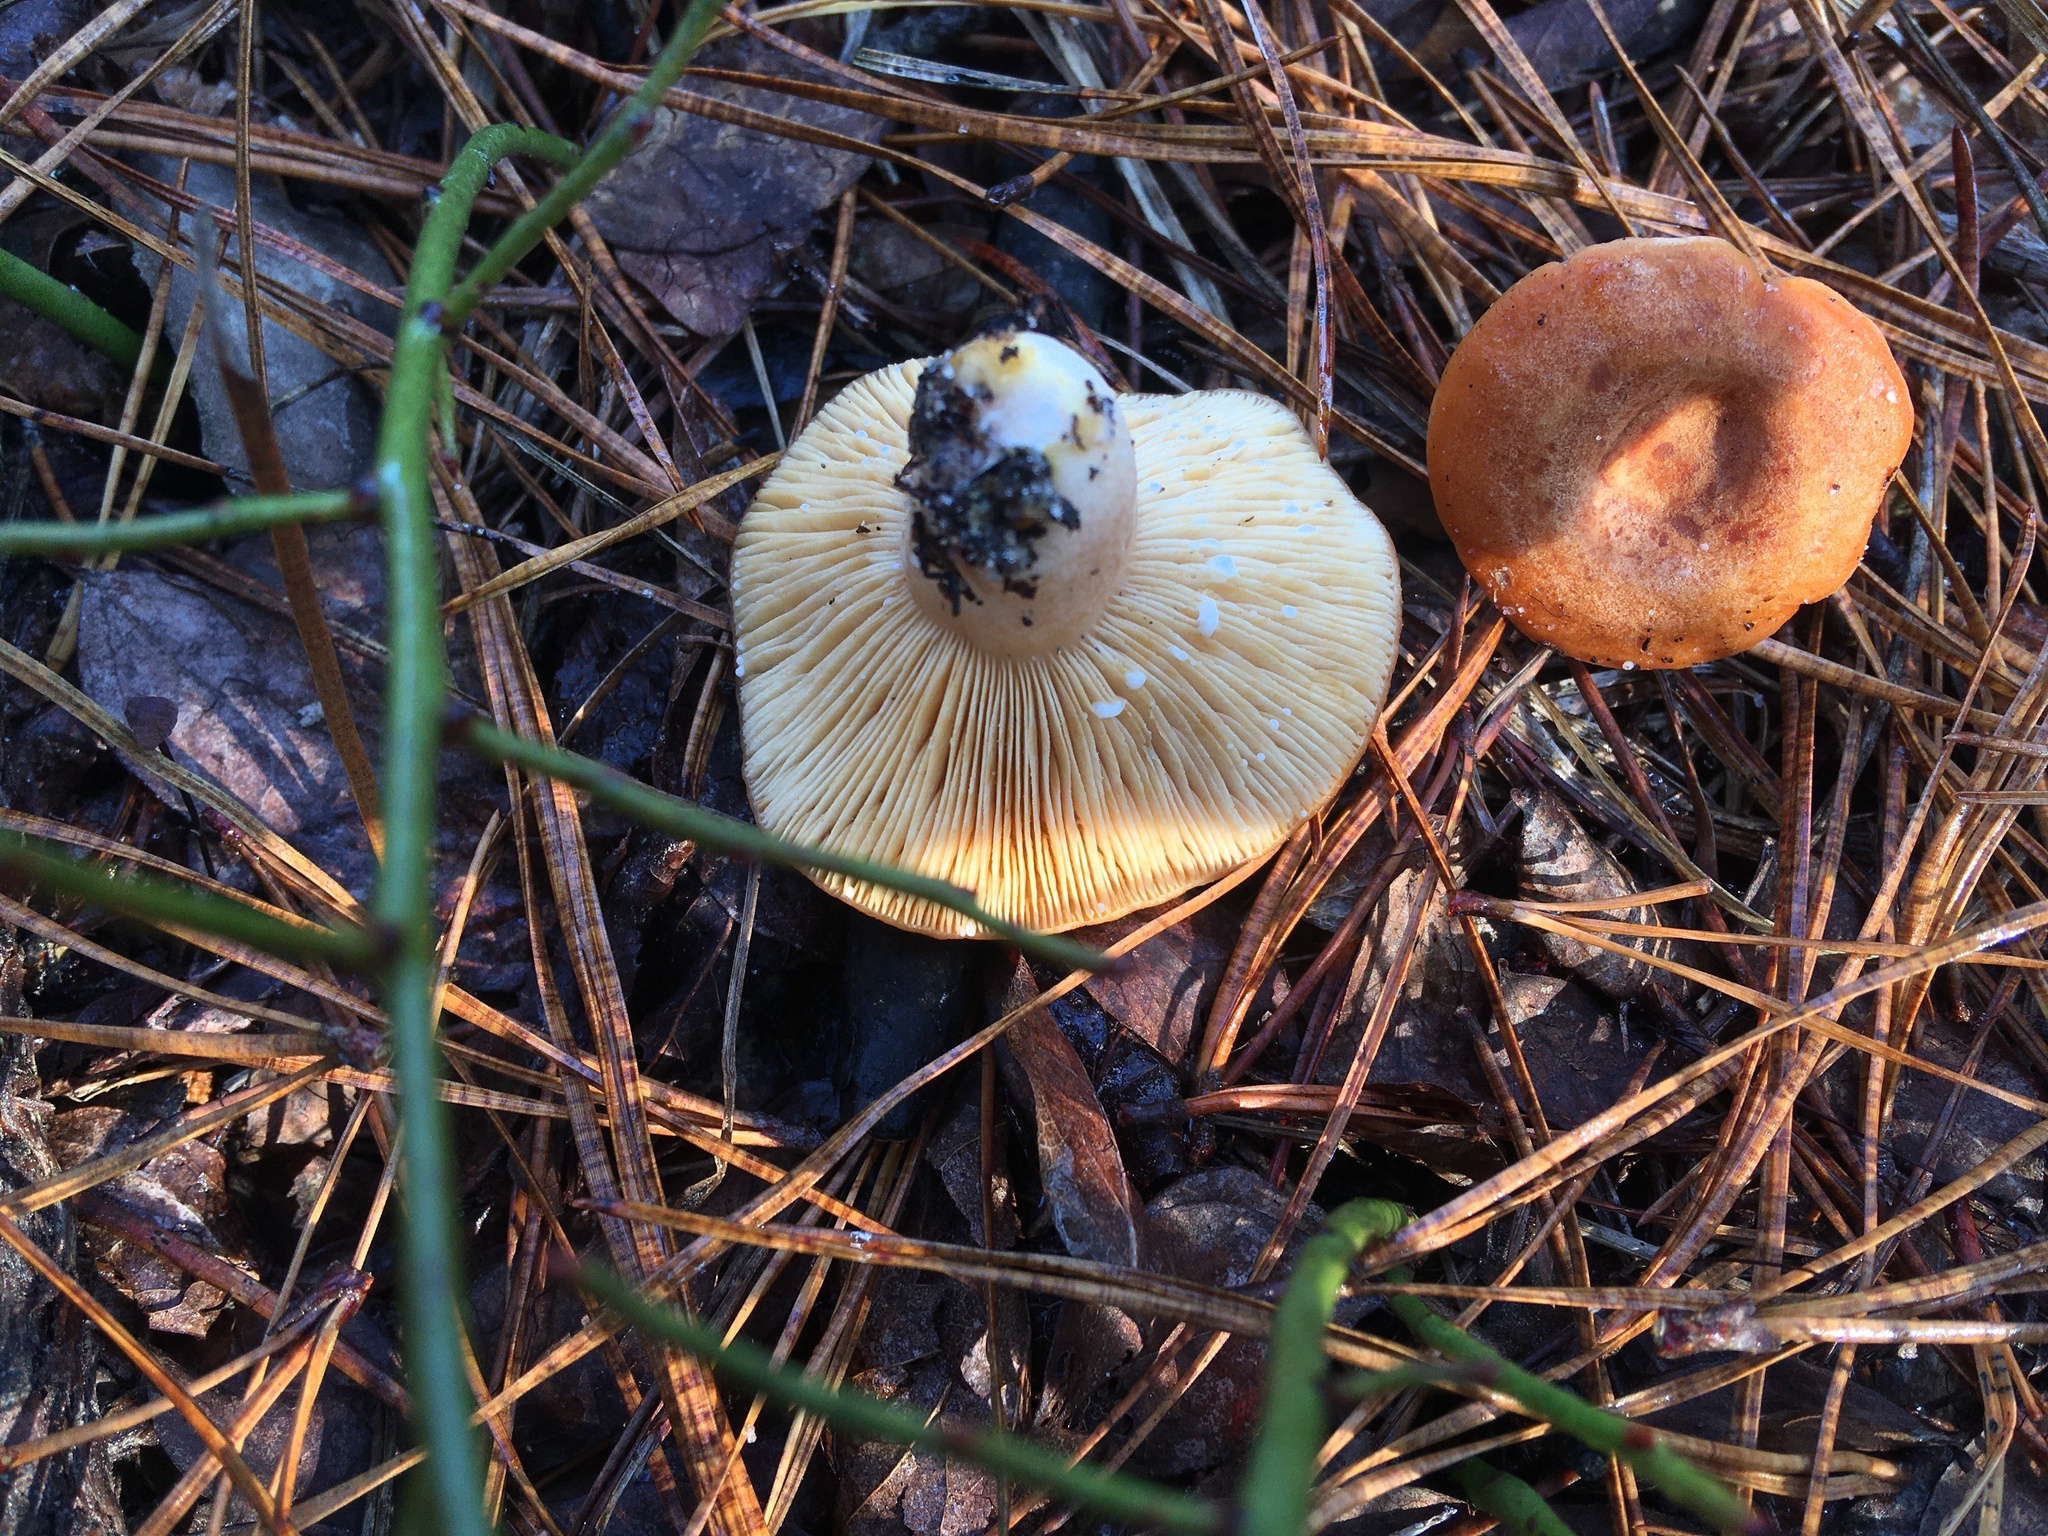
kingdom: Fungi
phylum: Basidiomycota
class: Agaricomycetes
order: Russulales
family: Russulaceae
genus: Lactarius
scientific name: Lactarius proximellus
